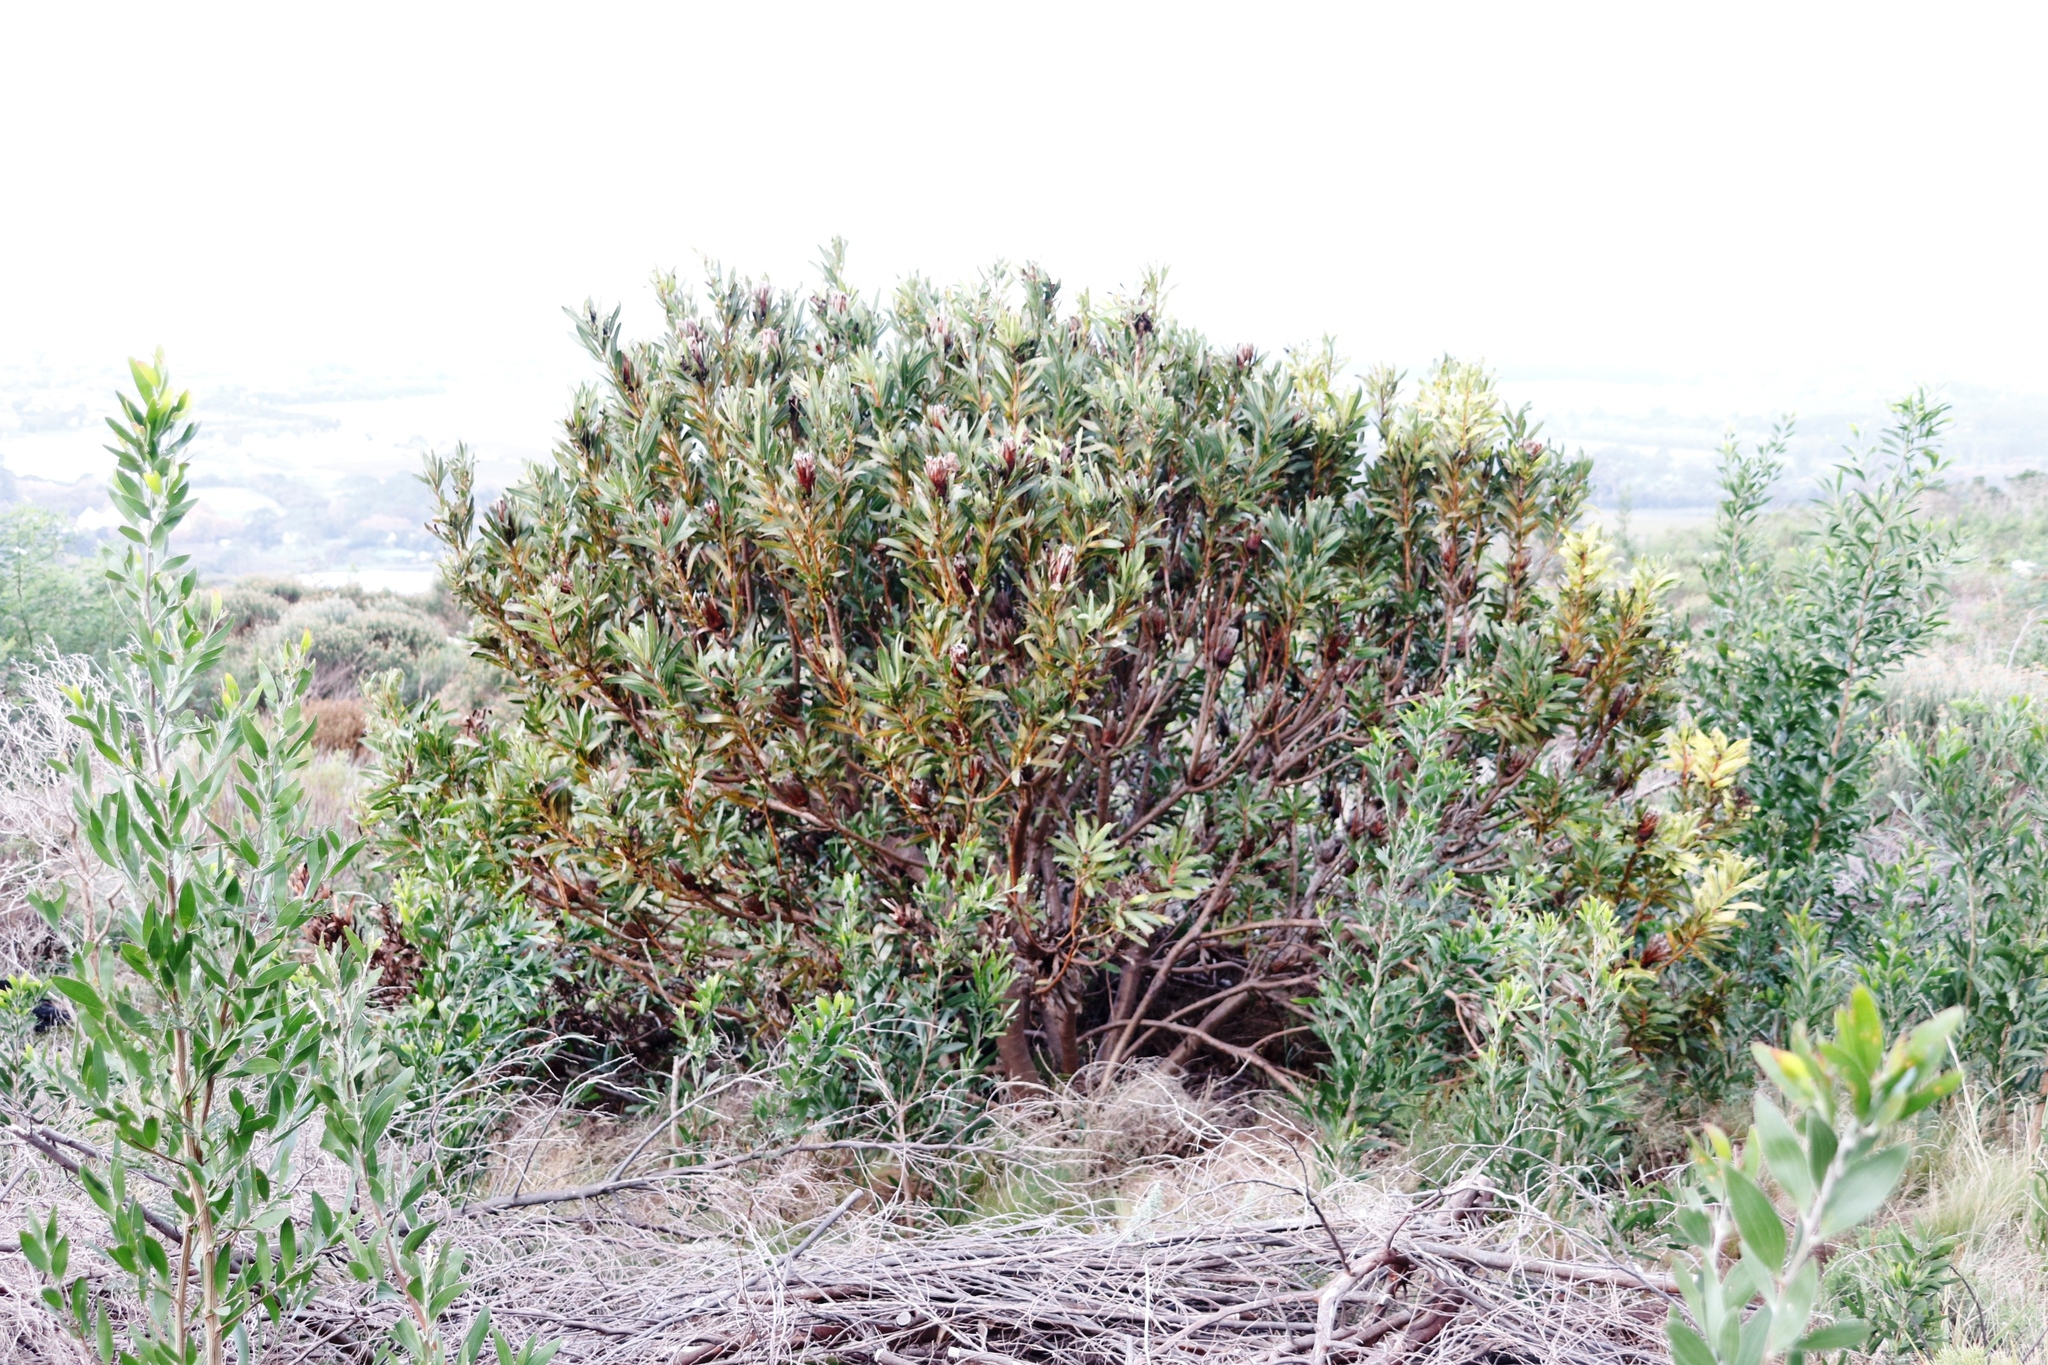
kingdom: Plantae
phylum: Tracheophyta
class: Magnoliopsida
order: Proteales
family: Proteaceae
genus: Protea
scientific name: Protea lepidocarpodendron
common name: Black-bearded protea
